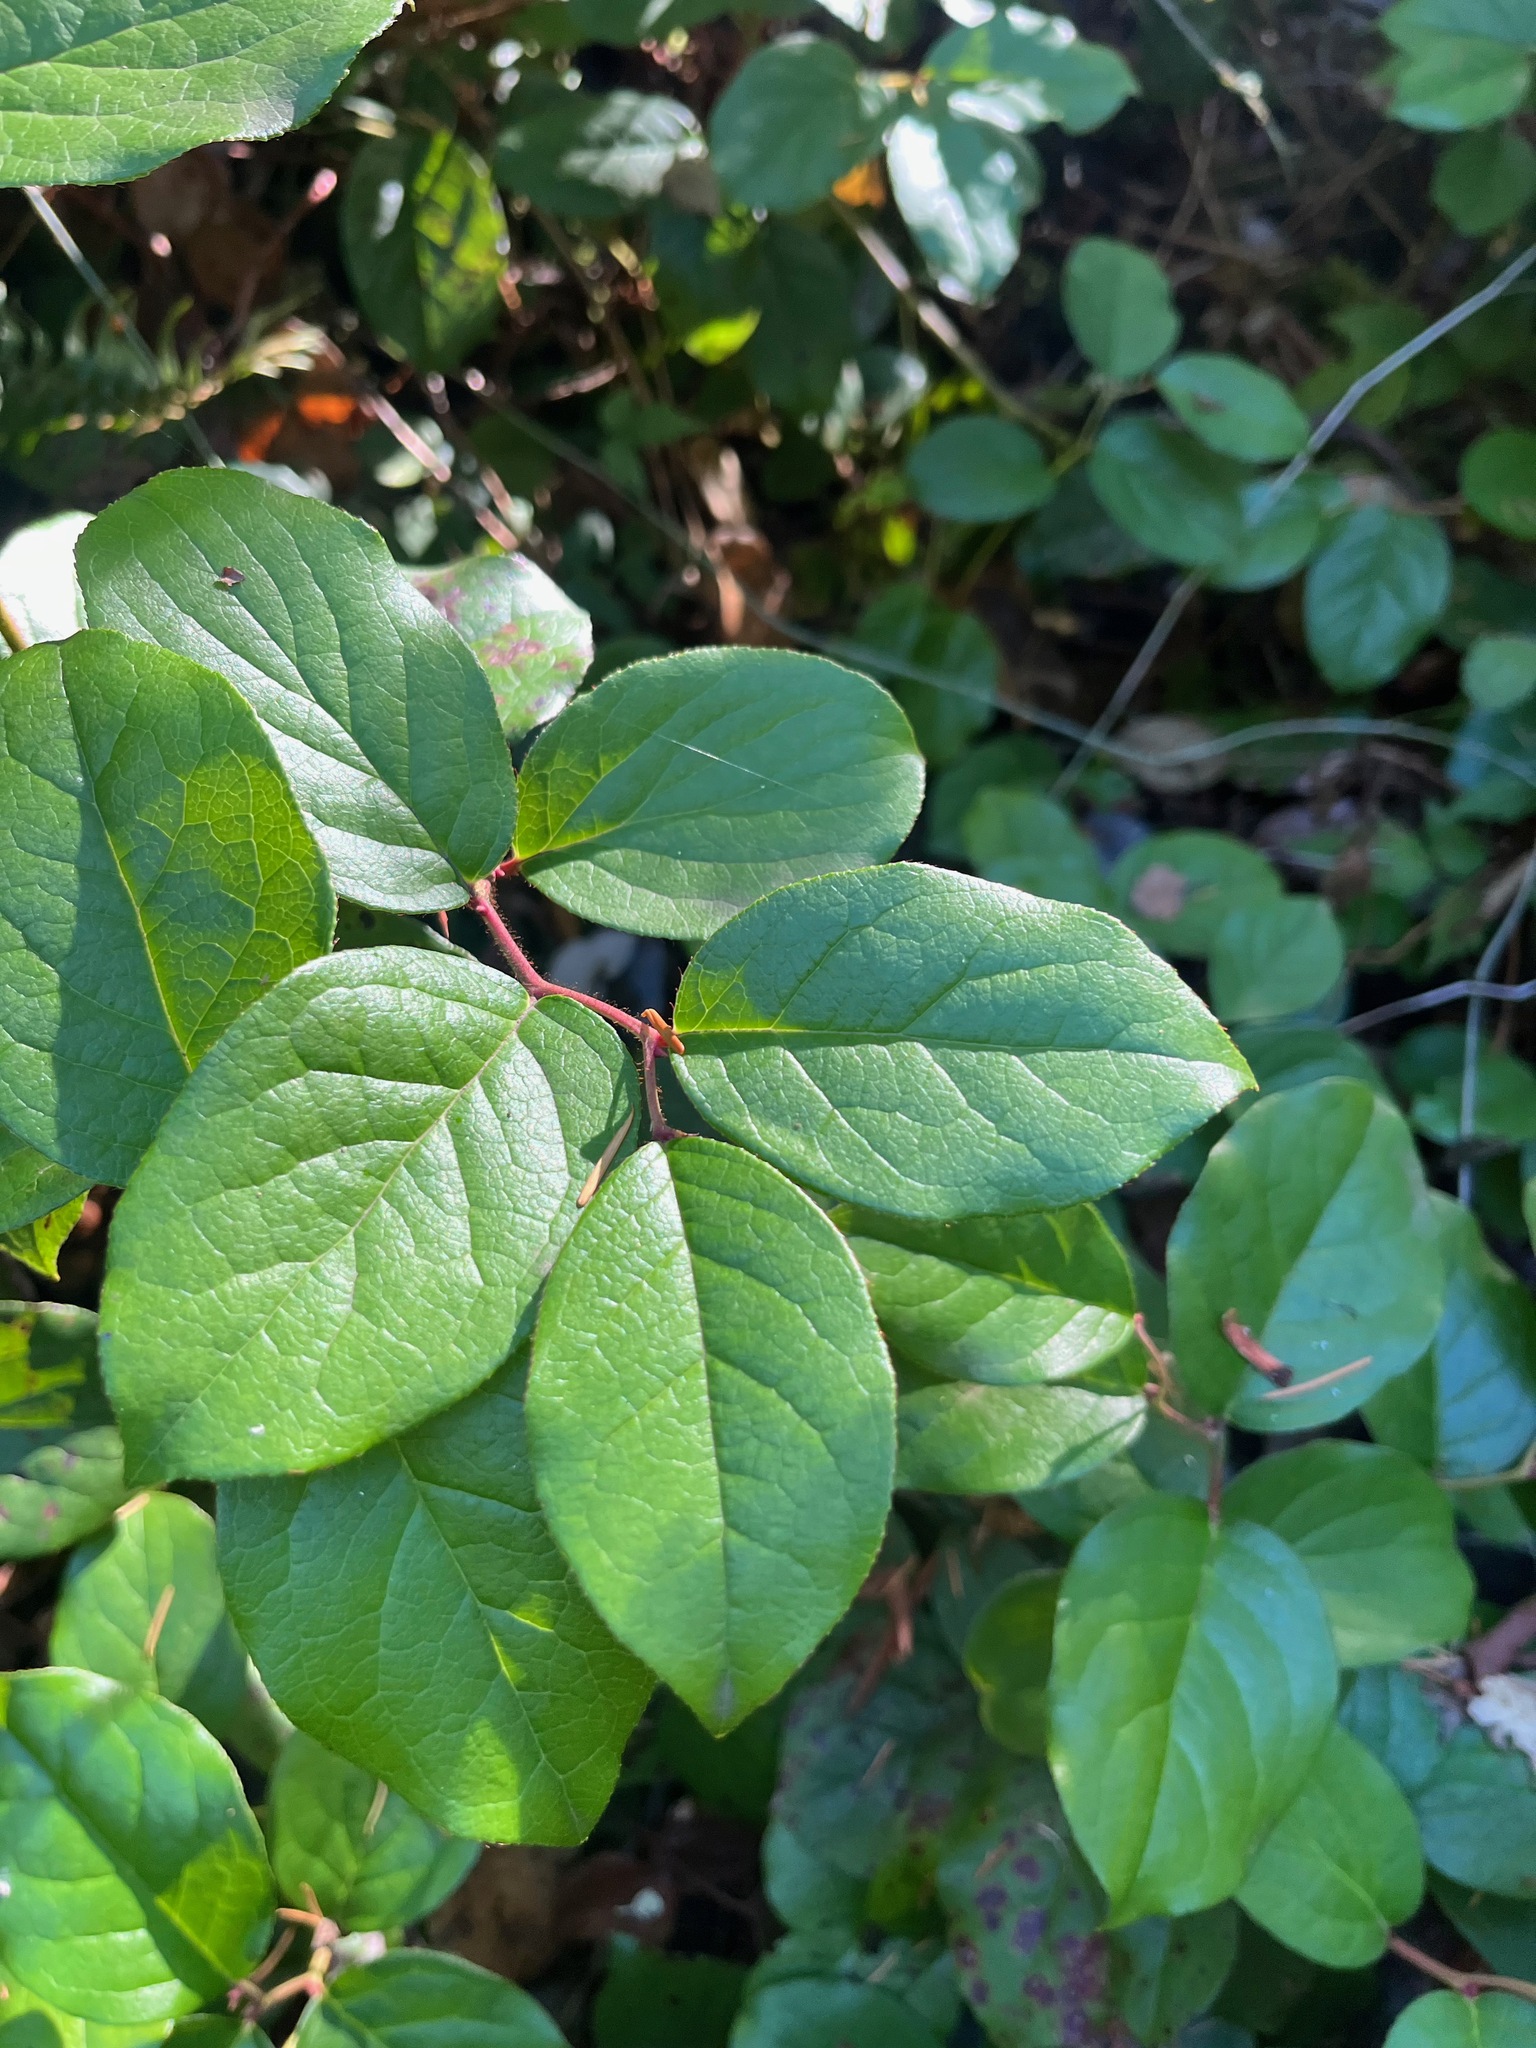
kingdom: Plantae
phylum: Tracheophyta
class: Magnoliopsida
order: Ericales
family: Ericaceae
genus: Gaultheria
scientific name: Gaultheria shallon
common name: Shallon
